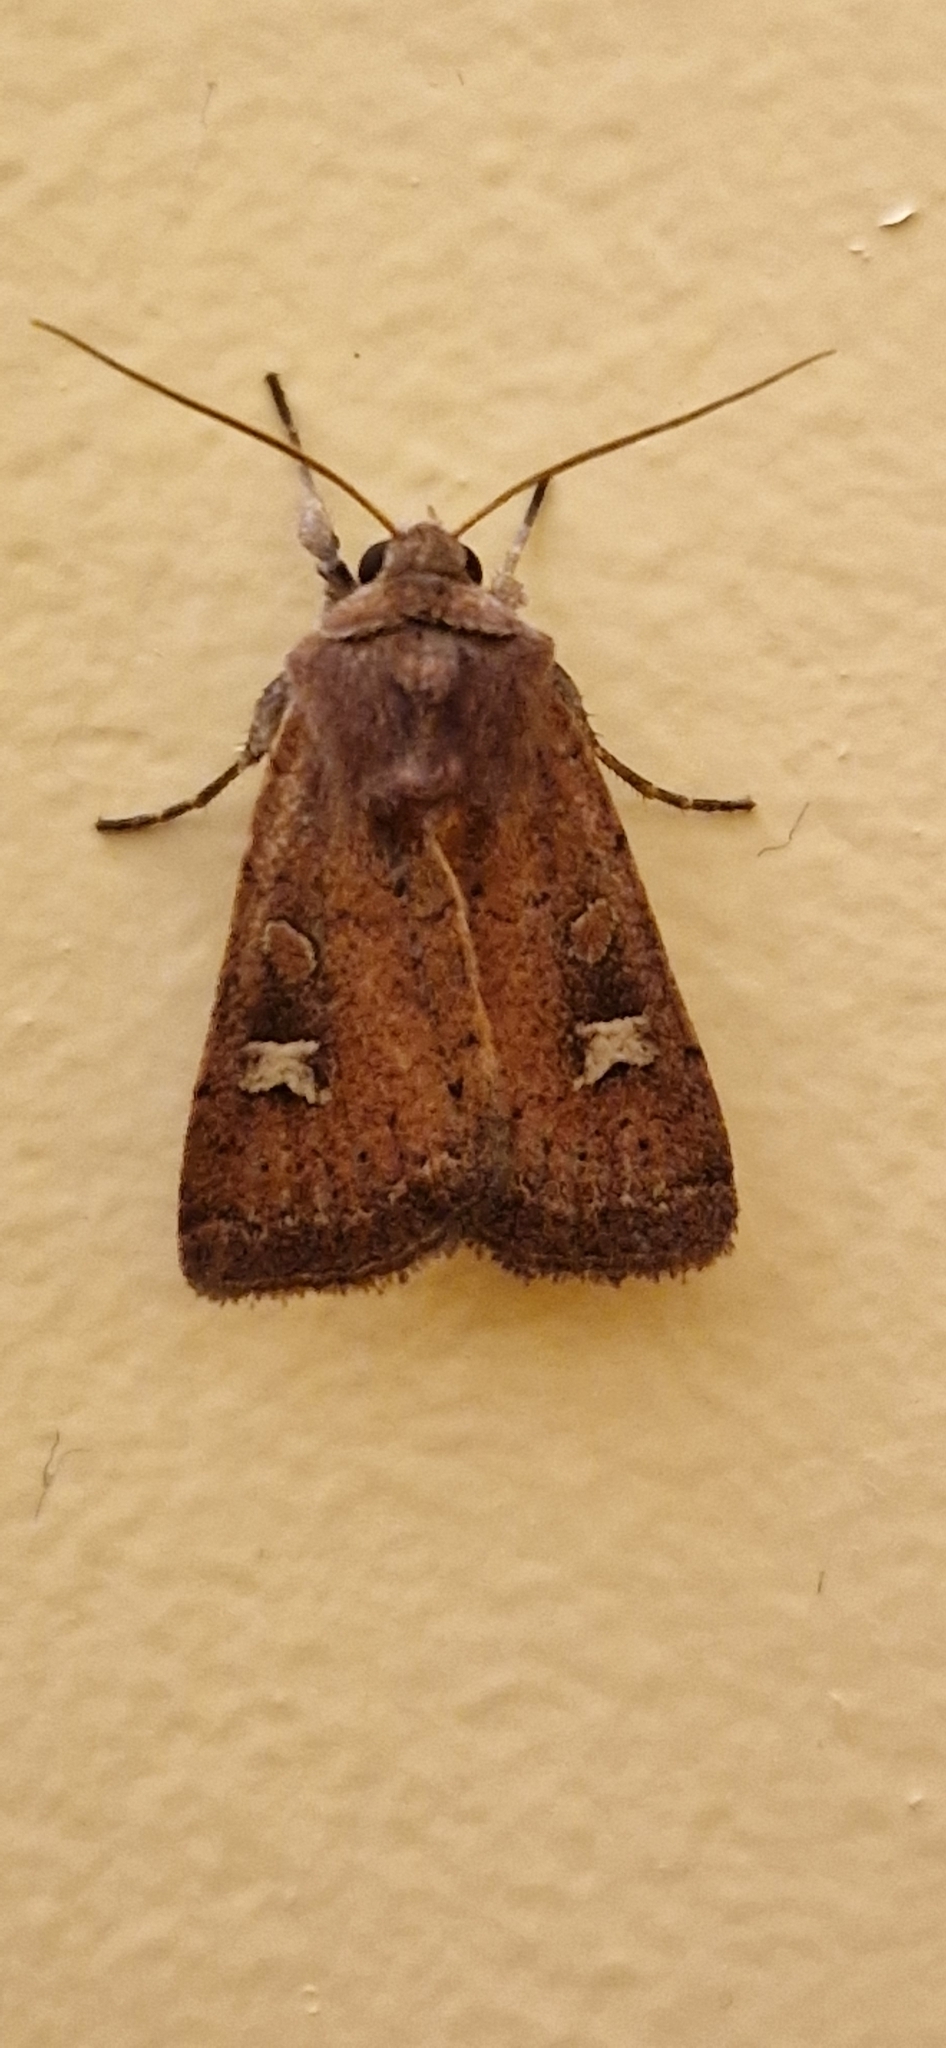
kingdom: Animalia
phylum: Arthropoda
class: Insecta
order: Lepidoptera
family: Noctuidae
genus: Xestia
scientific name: Xestia xanthographa
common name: Square-spot rustic
